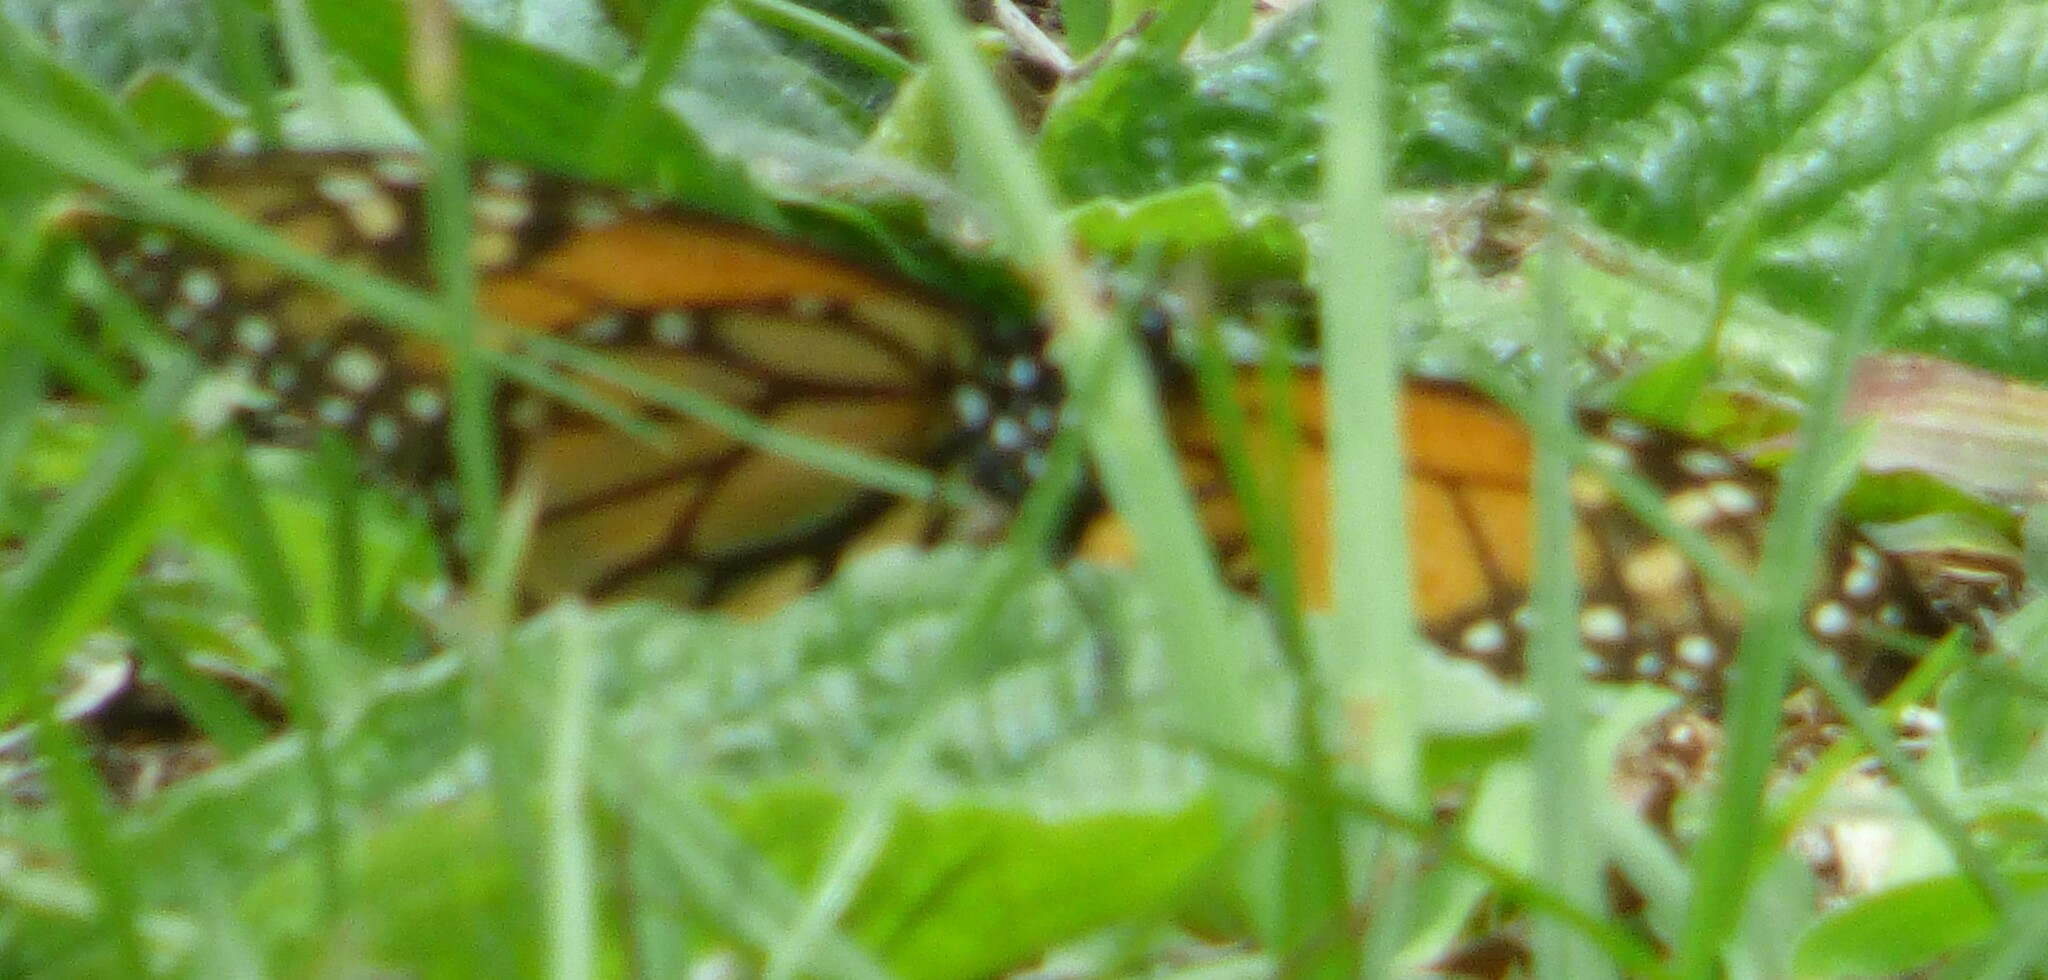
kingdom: Animalia
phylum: Arthropoda
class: Insecta
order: Lepidoptera
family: Nymphalidae
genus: Danaus
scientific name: Danaus plexippus
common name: Monarch
